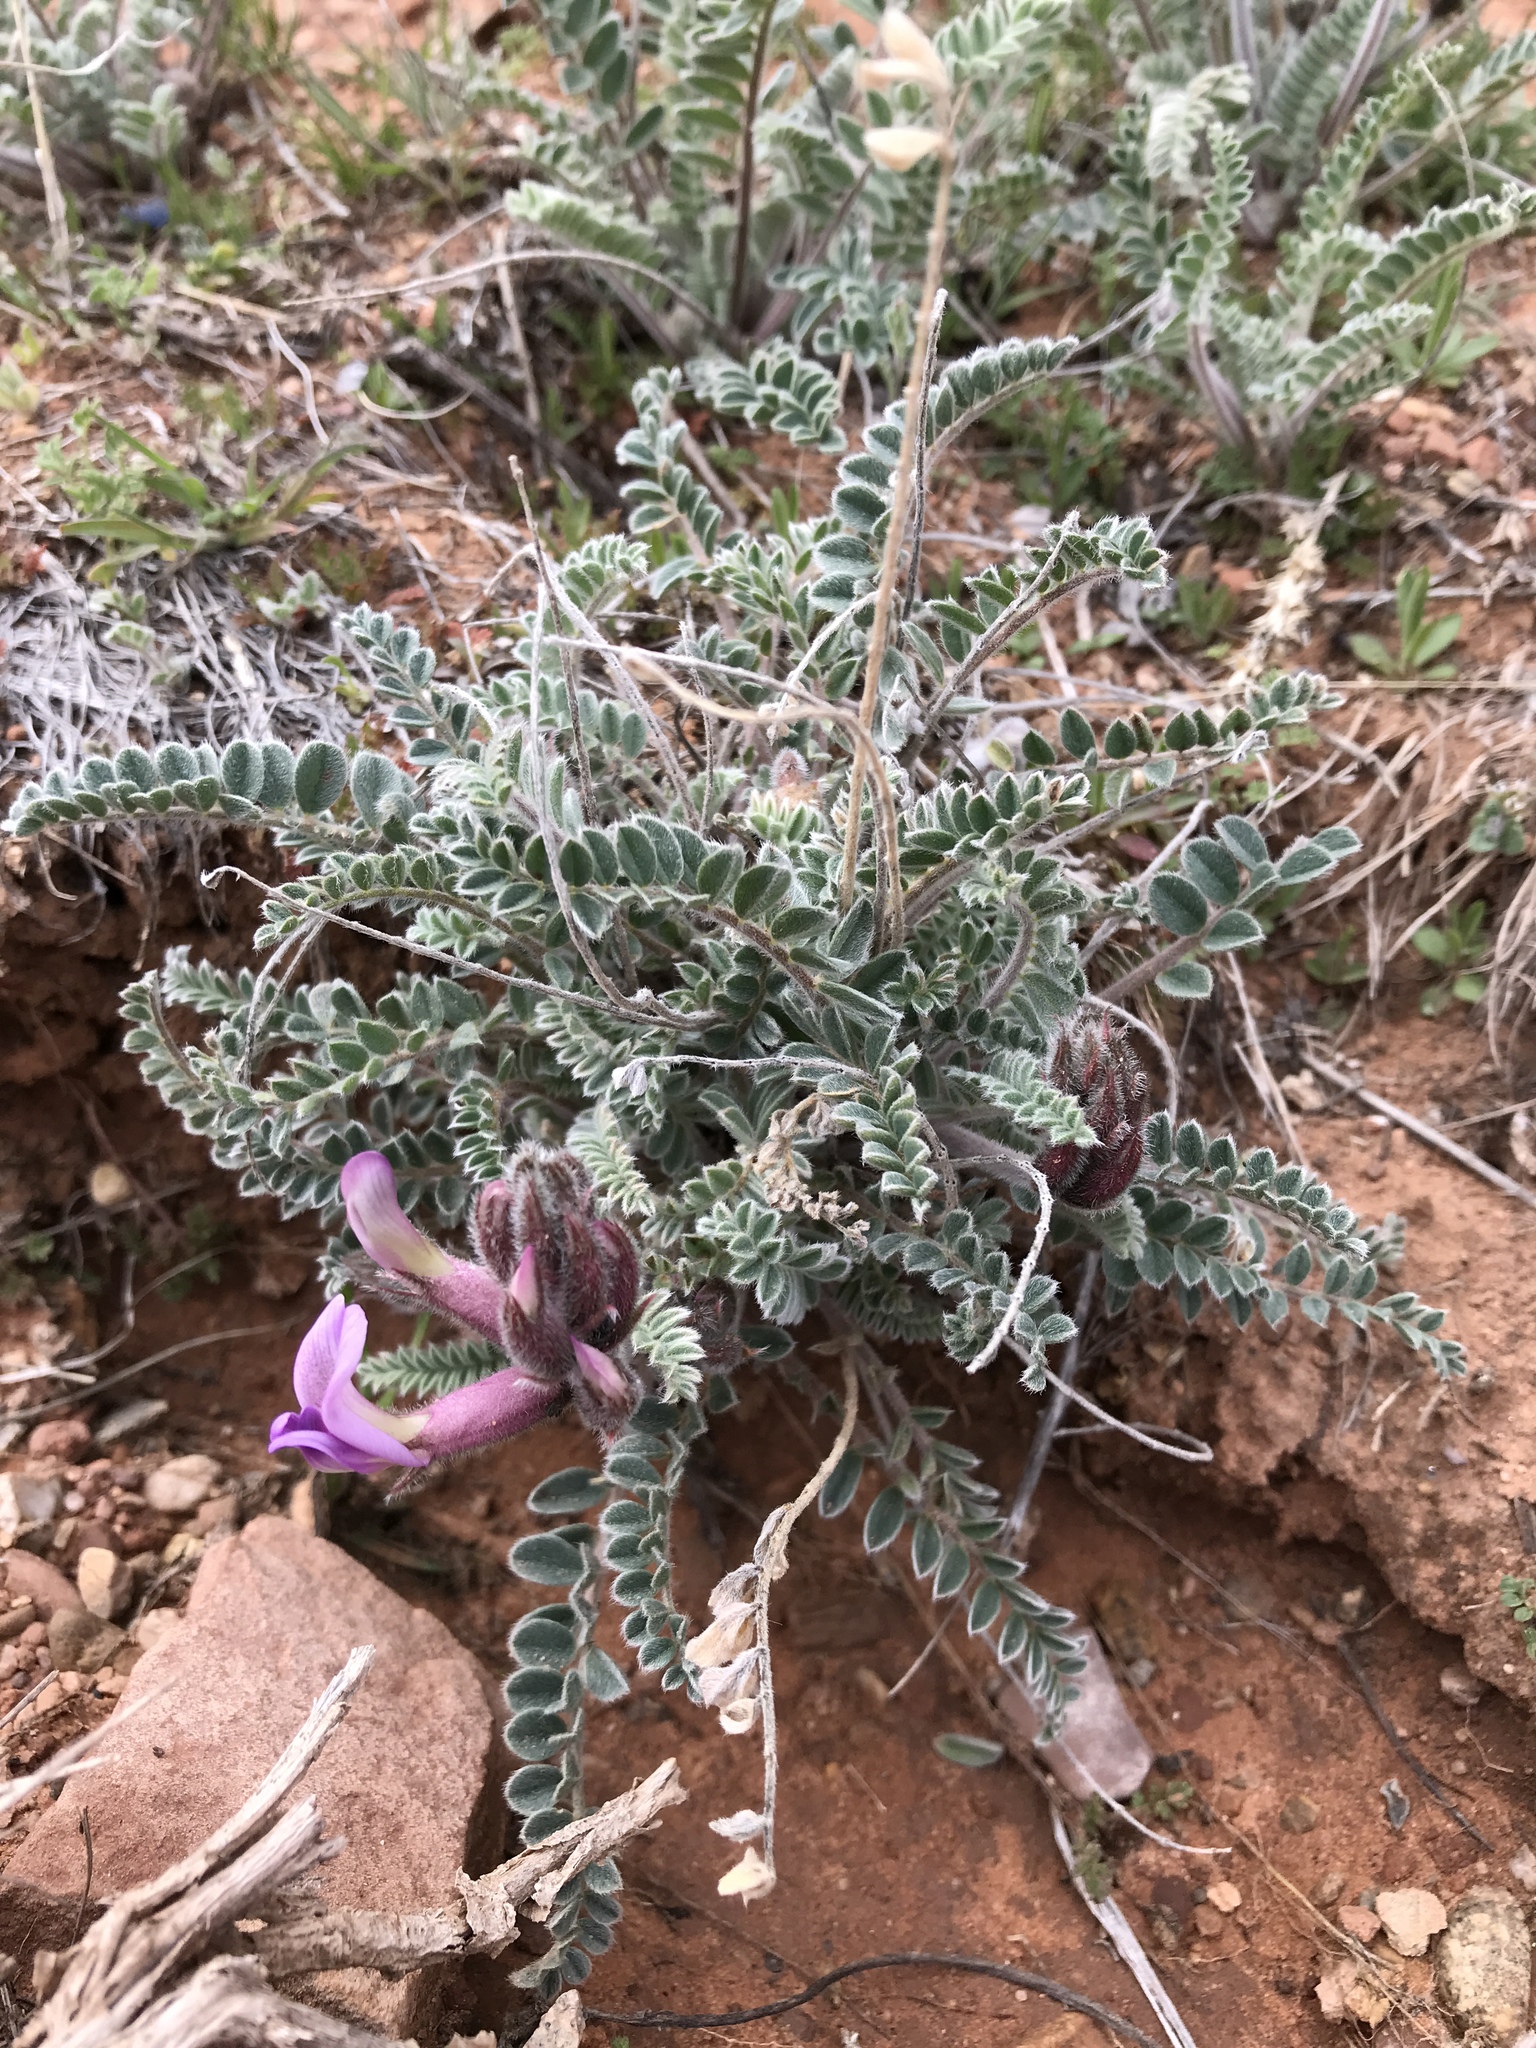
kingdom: Plantae
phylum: Tracheophyta
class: Magnoliopsida
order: Fabales
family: Fabaceae
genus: Astragalus
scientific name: Astragalus mollissimus
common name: Woolly locoweed
